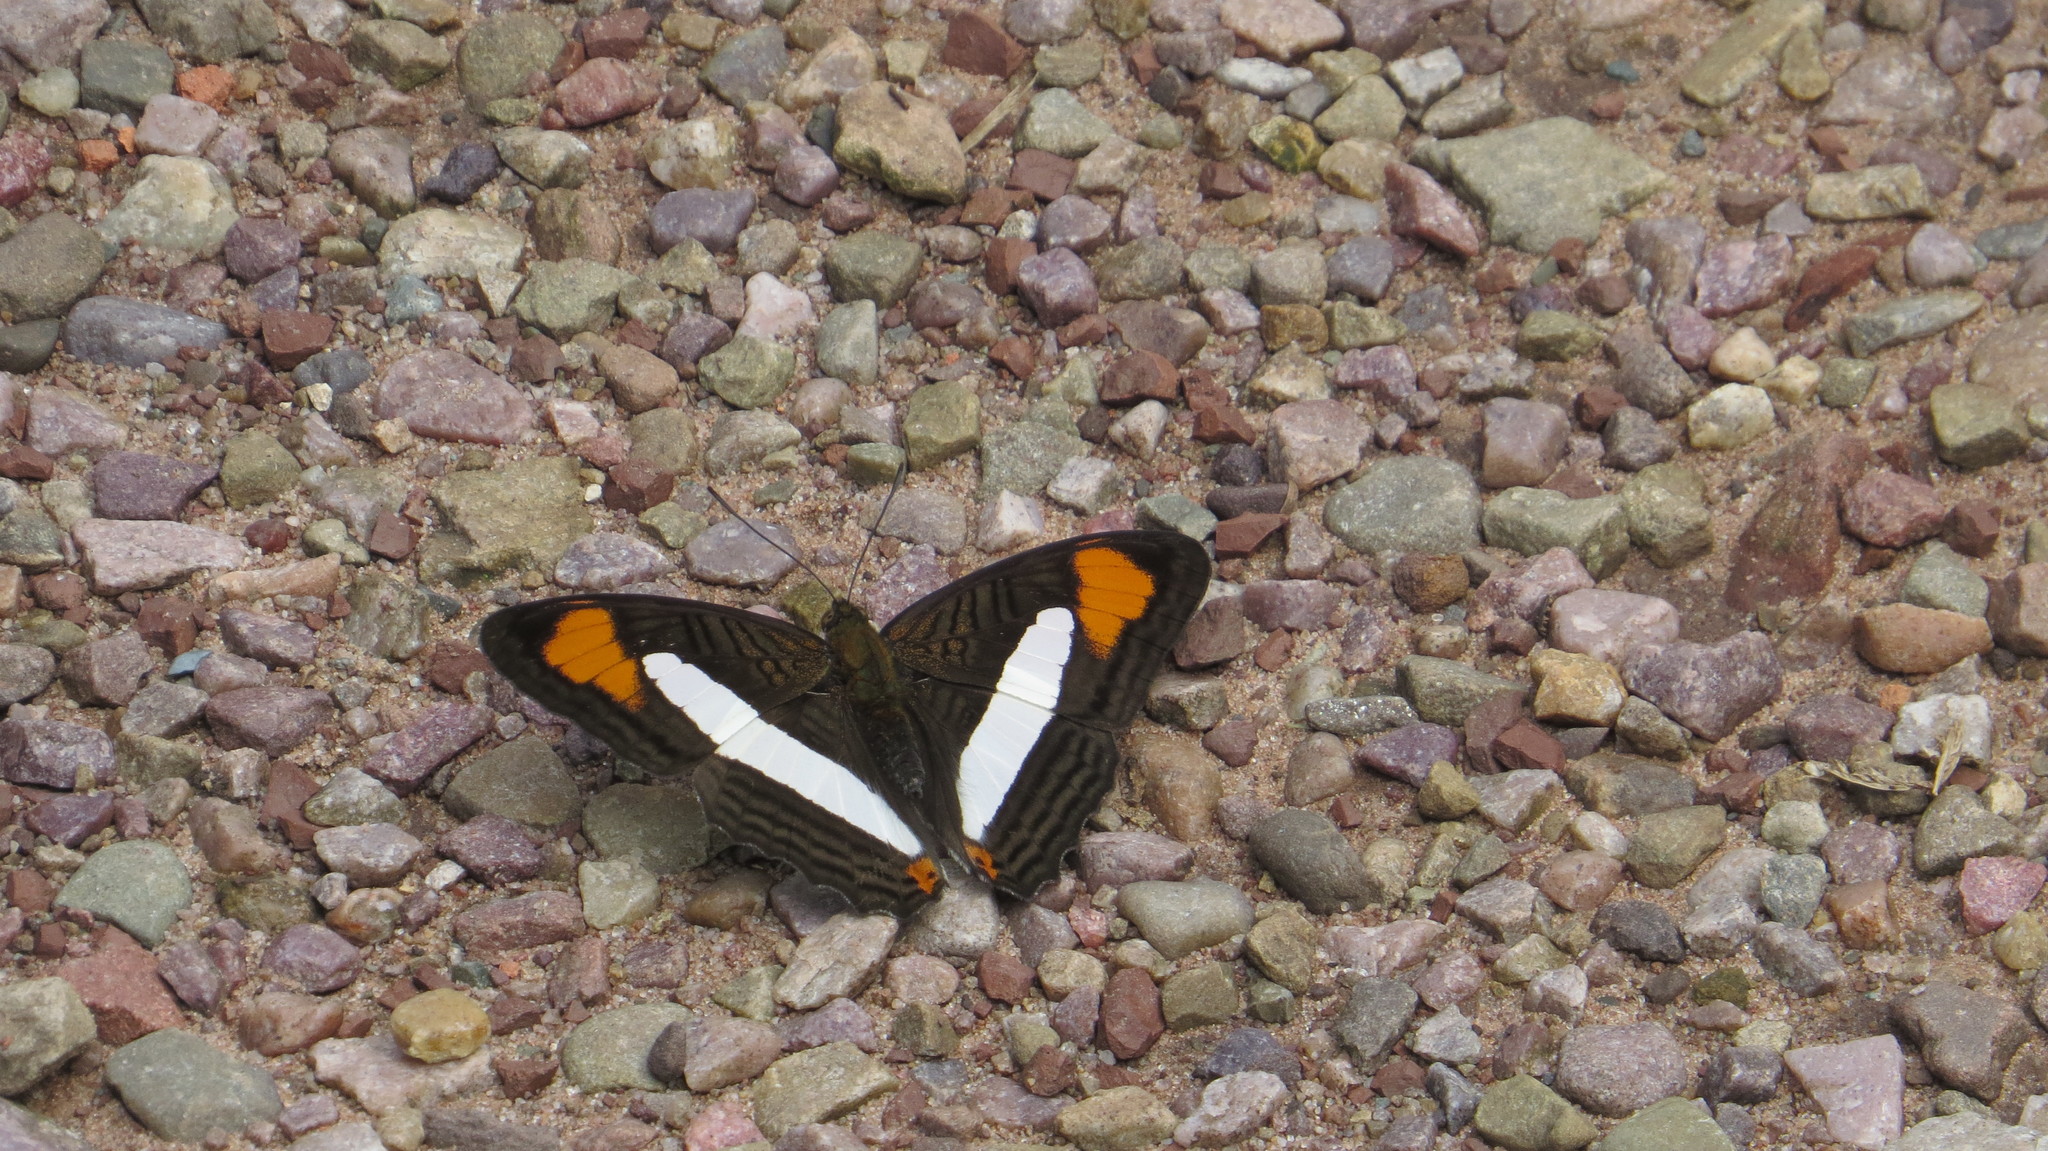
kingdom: Animalia
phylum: Arthropoda
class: Insecta
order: Lepidoptera
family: Nymphalidae
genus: Limenitis
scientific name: Limenitis thessalia
